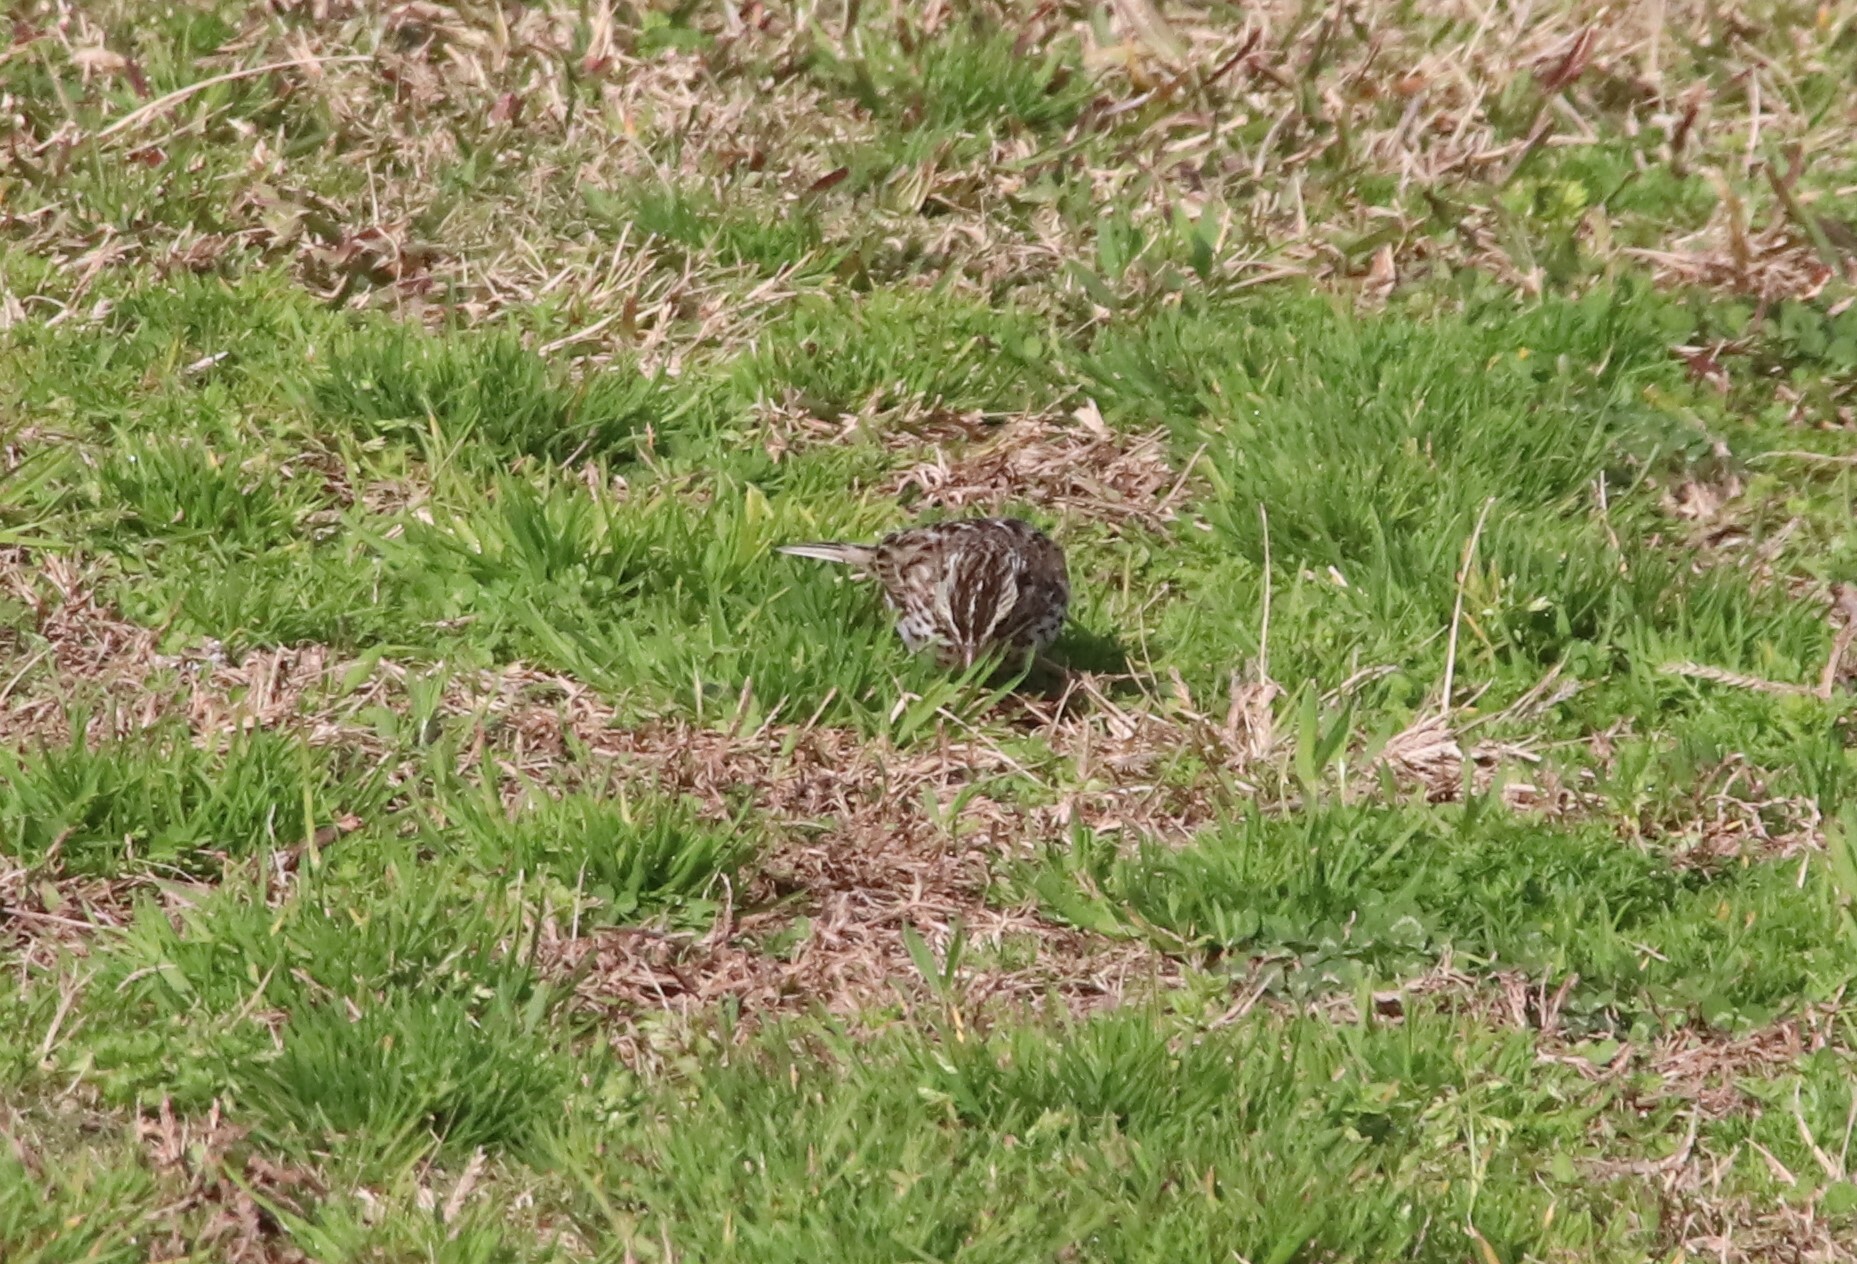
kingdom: Animalia
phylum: Chordata
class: Aves
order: Passeriformes
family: Passerellidae
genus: Passerculus
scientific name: Passerculus sandwichensis
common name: Savannah sparrow
